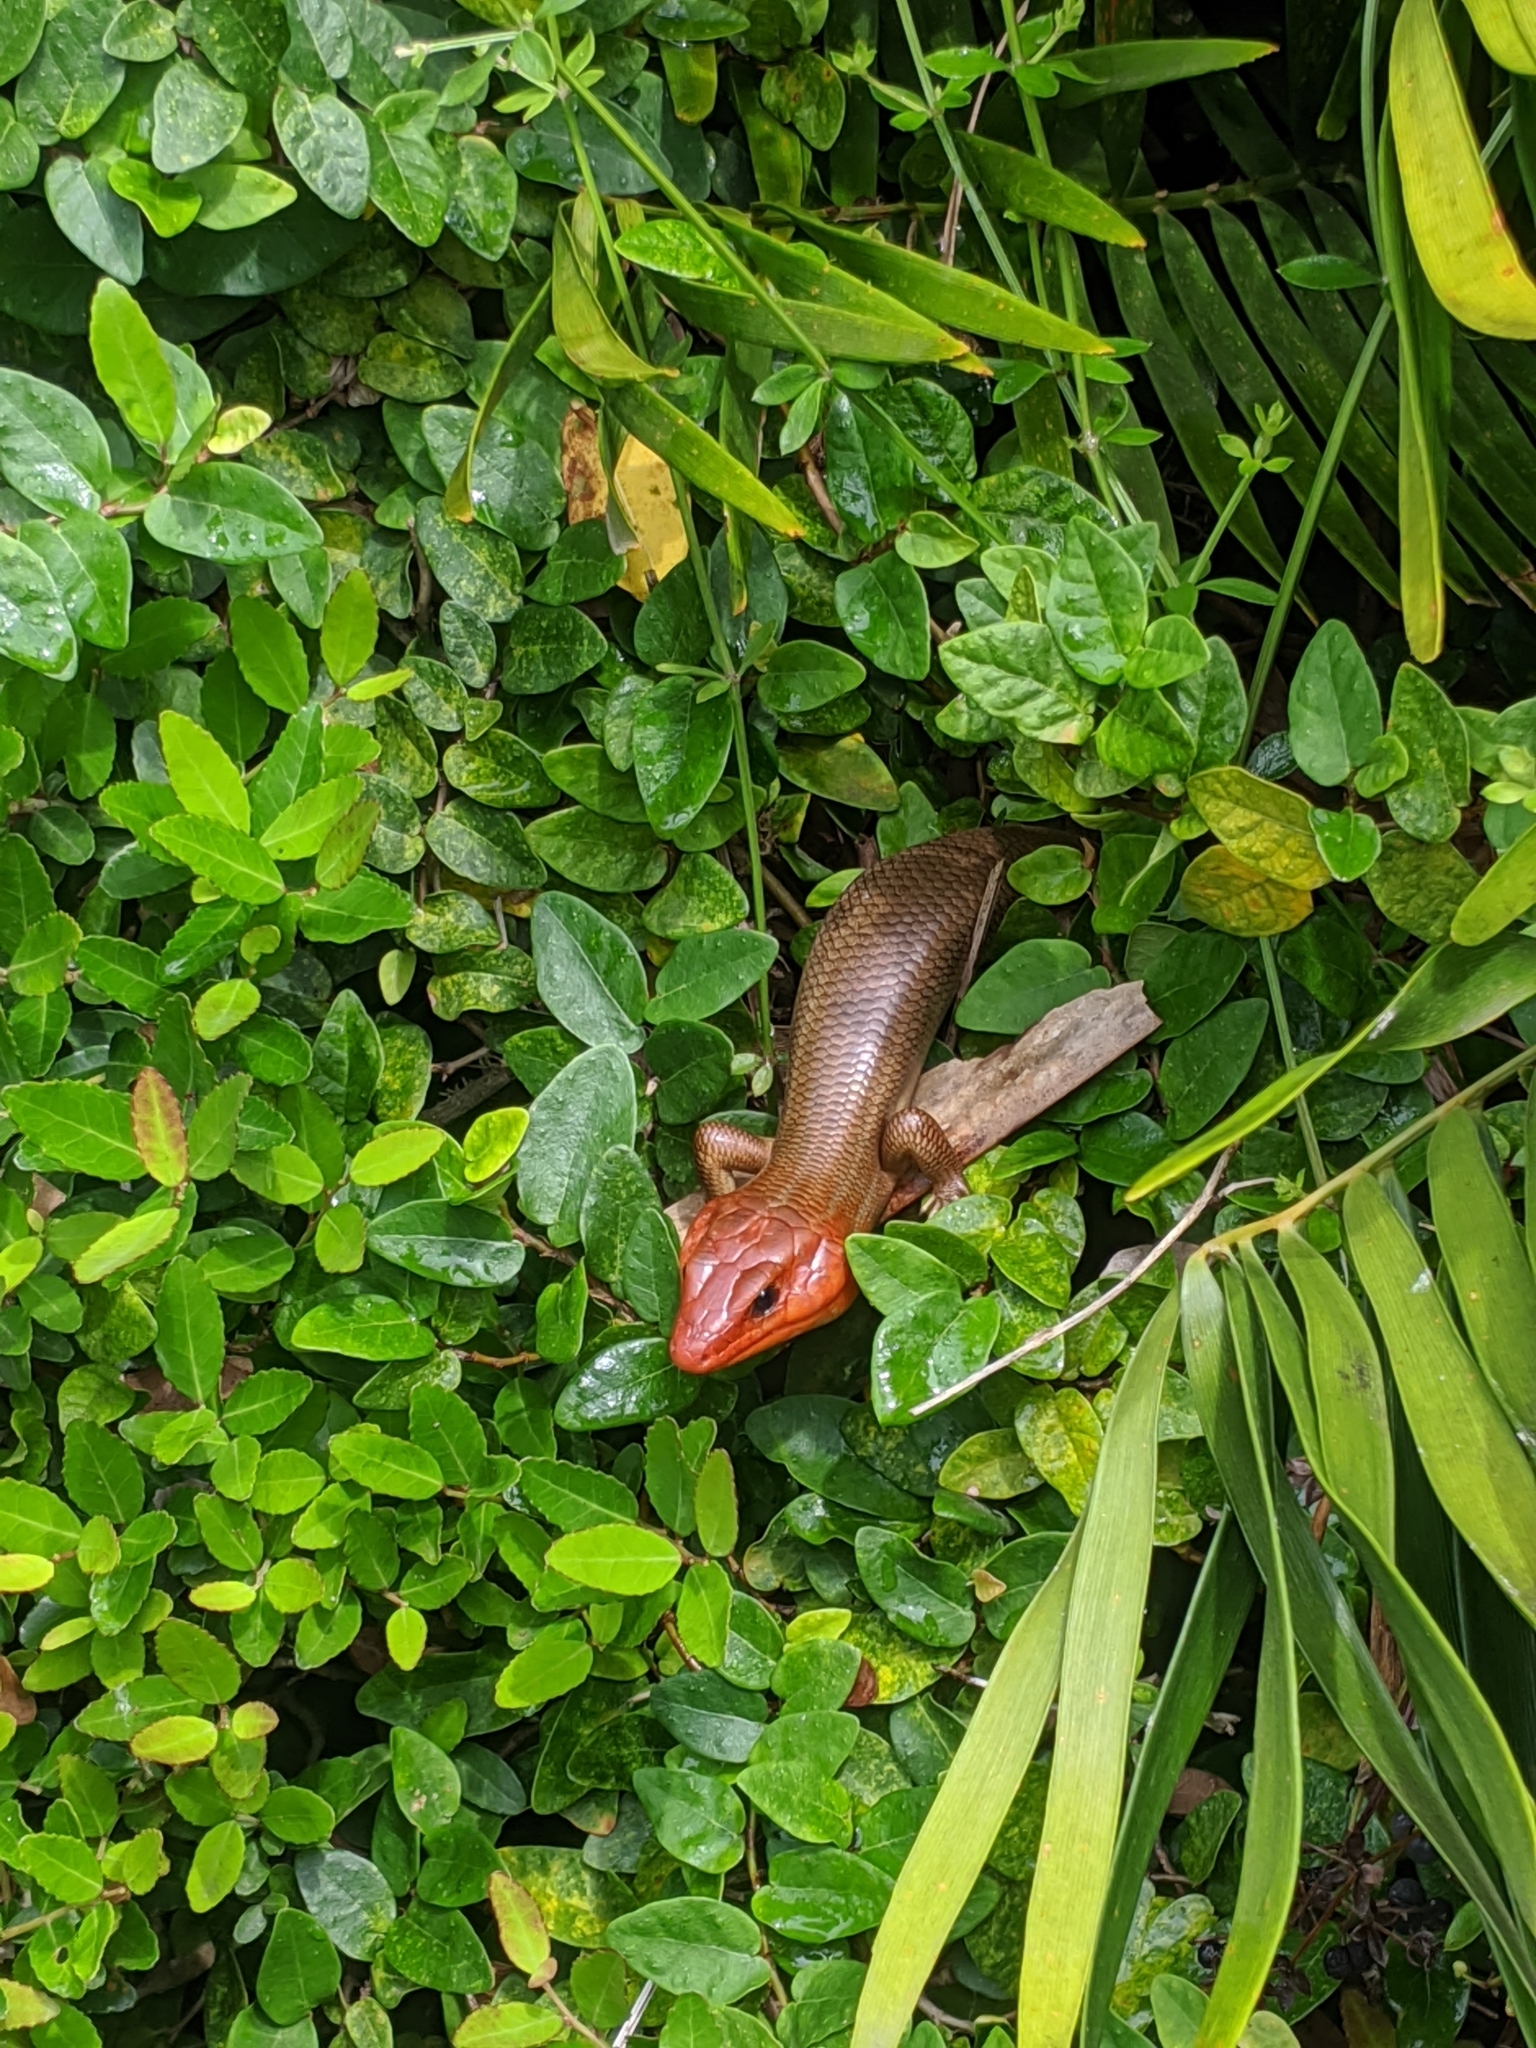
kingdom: Animalia
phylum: Chordata
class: Squamata
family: Scincidae
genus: Plestiodon
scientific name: Plestiodon laticeps
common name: Broadhead skink
